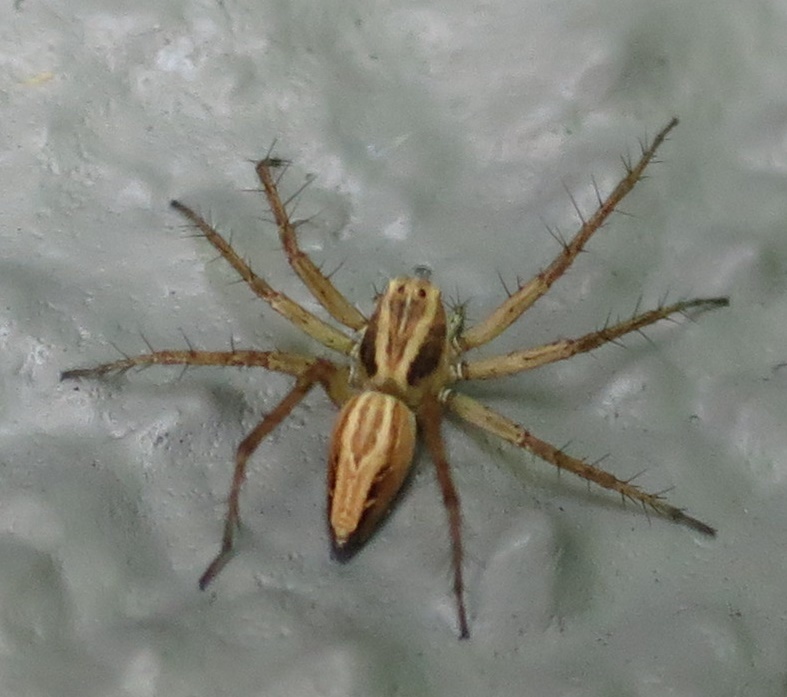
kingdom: Animalia
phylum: Arthropoda
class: Arachnida
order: Araneae
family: Oxyopidae
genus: Oxyopes
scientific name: Oxyopes gracilipes
